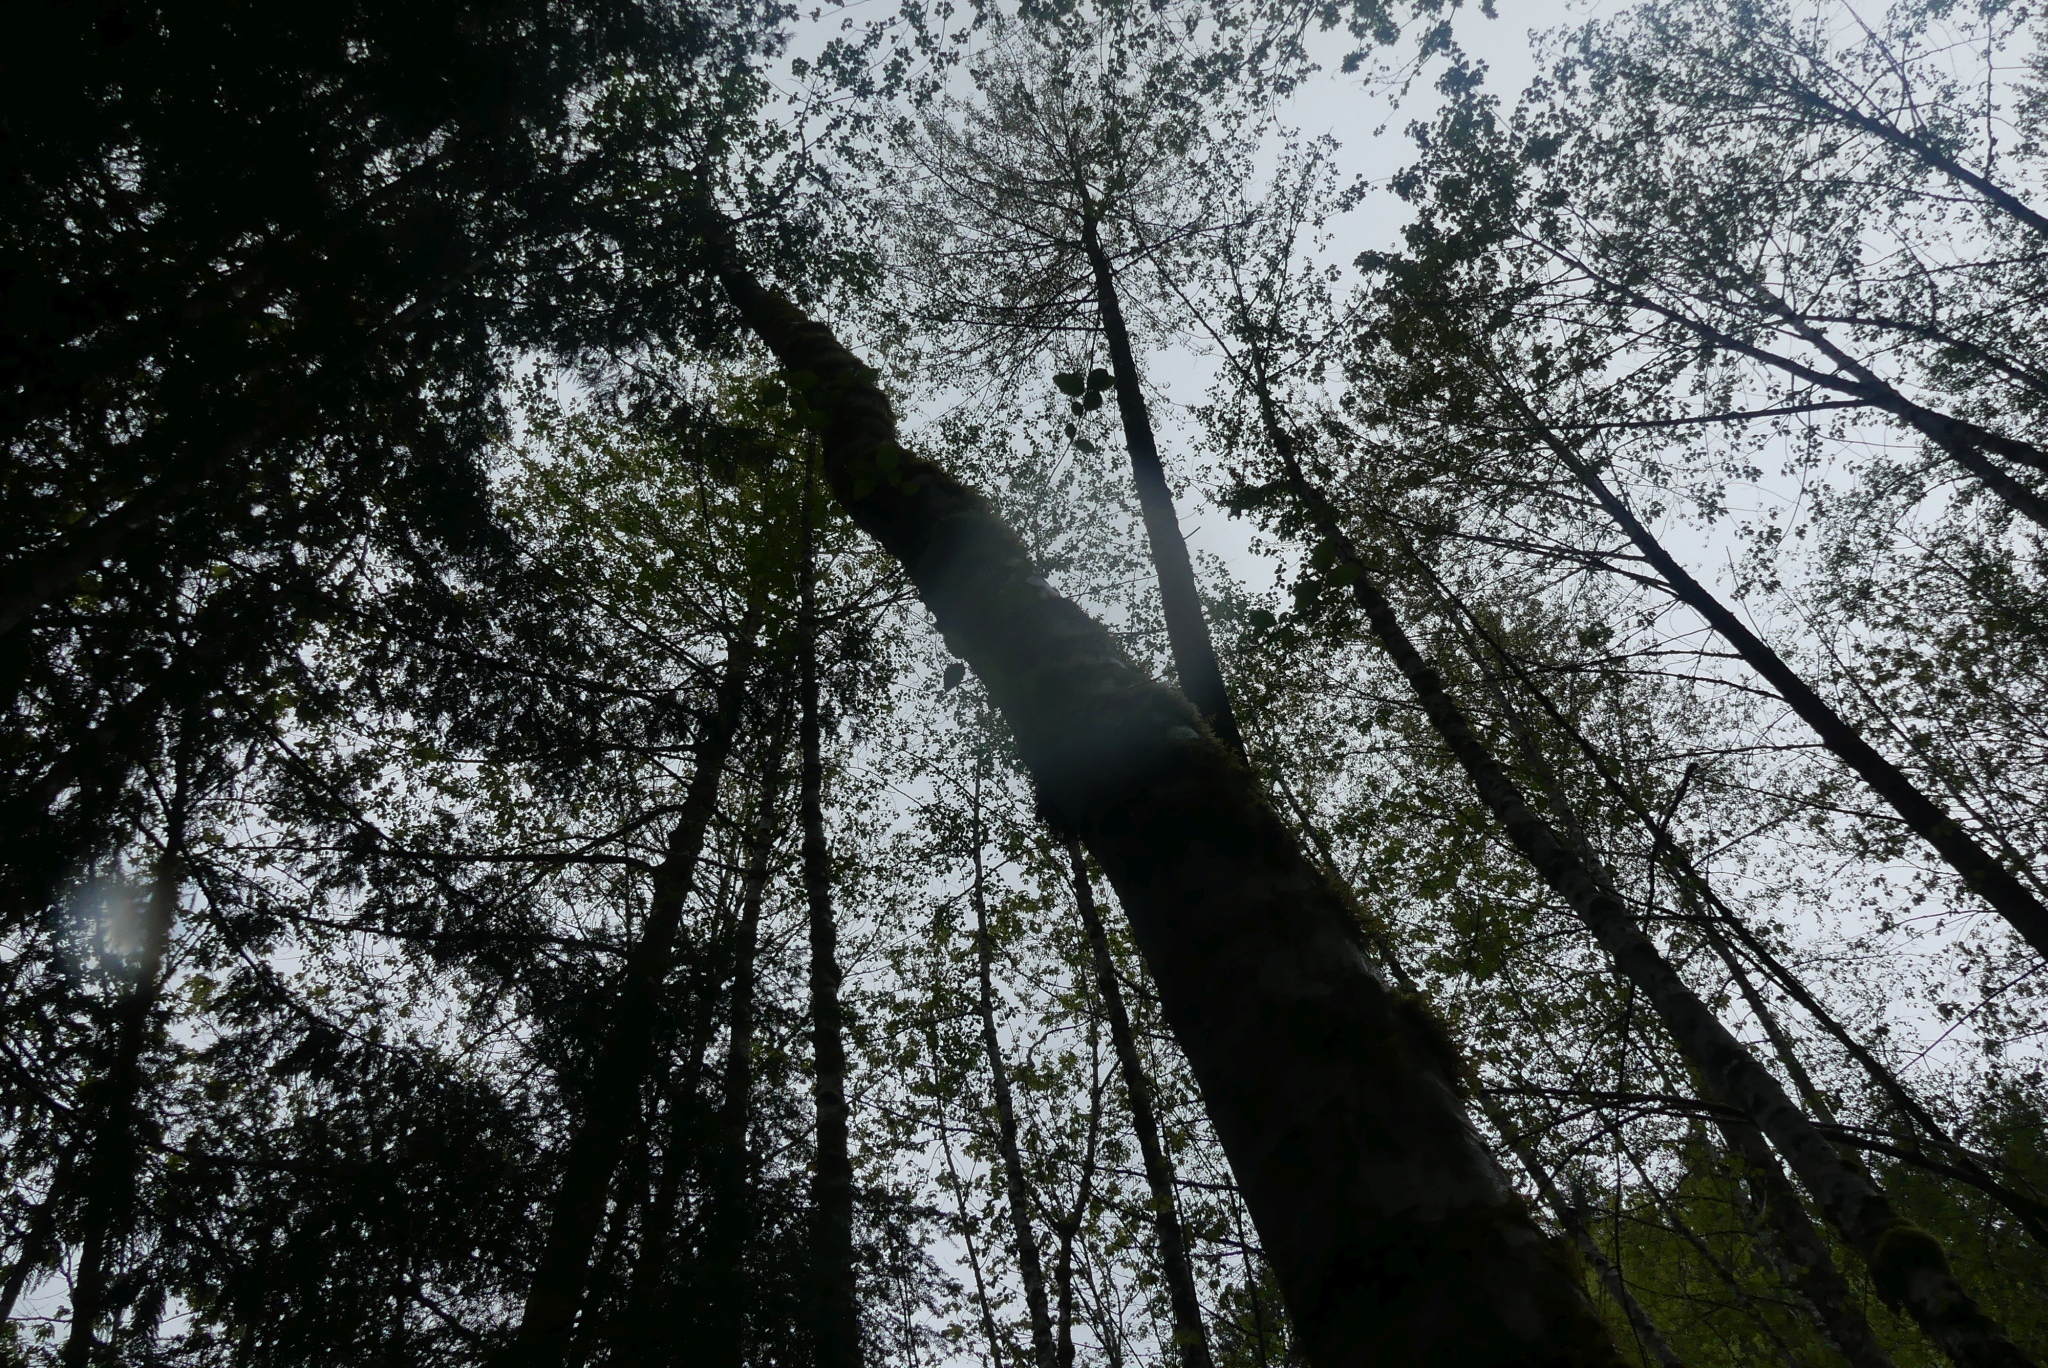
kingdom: Plantae
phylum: Tracheophyta
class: Magnoliopsida
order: Fagales
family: Betulaceae
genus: Alnus
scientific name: Alnus rubra
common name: Red alder
